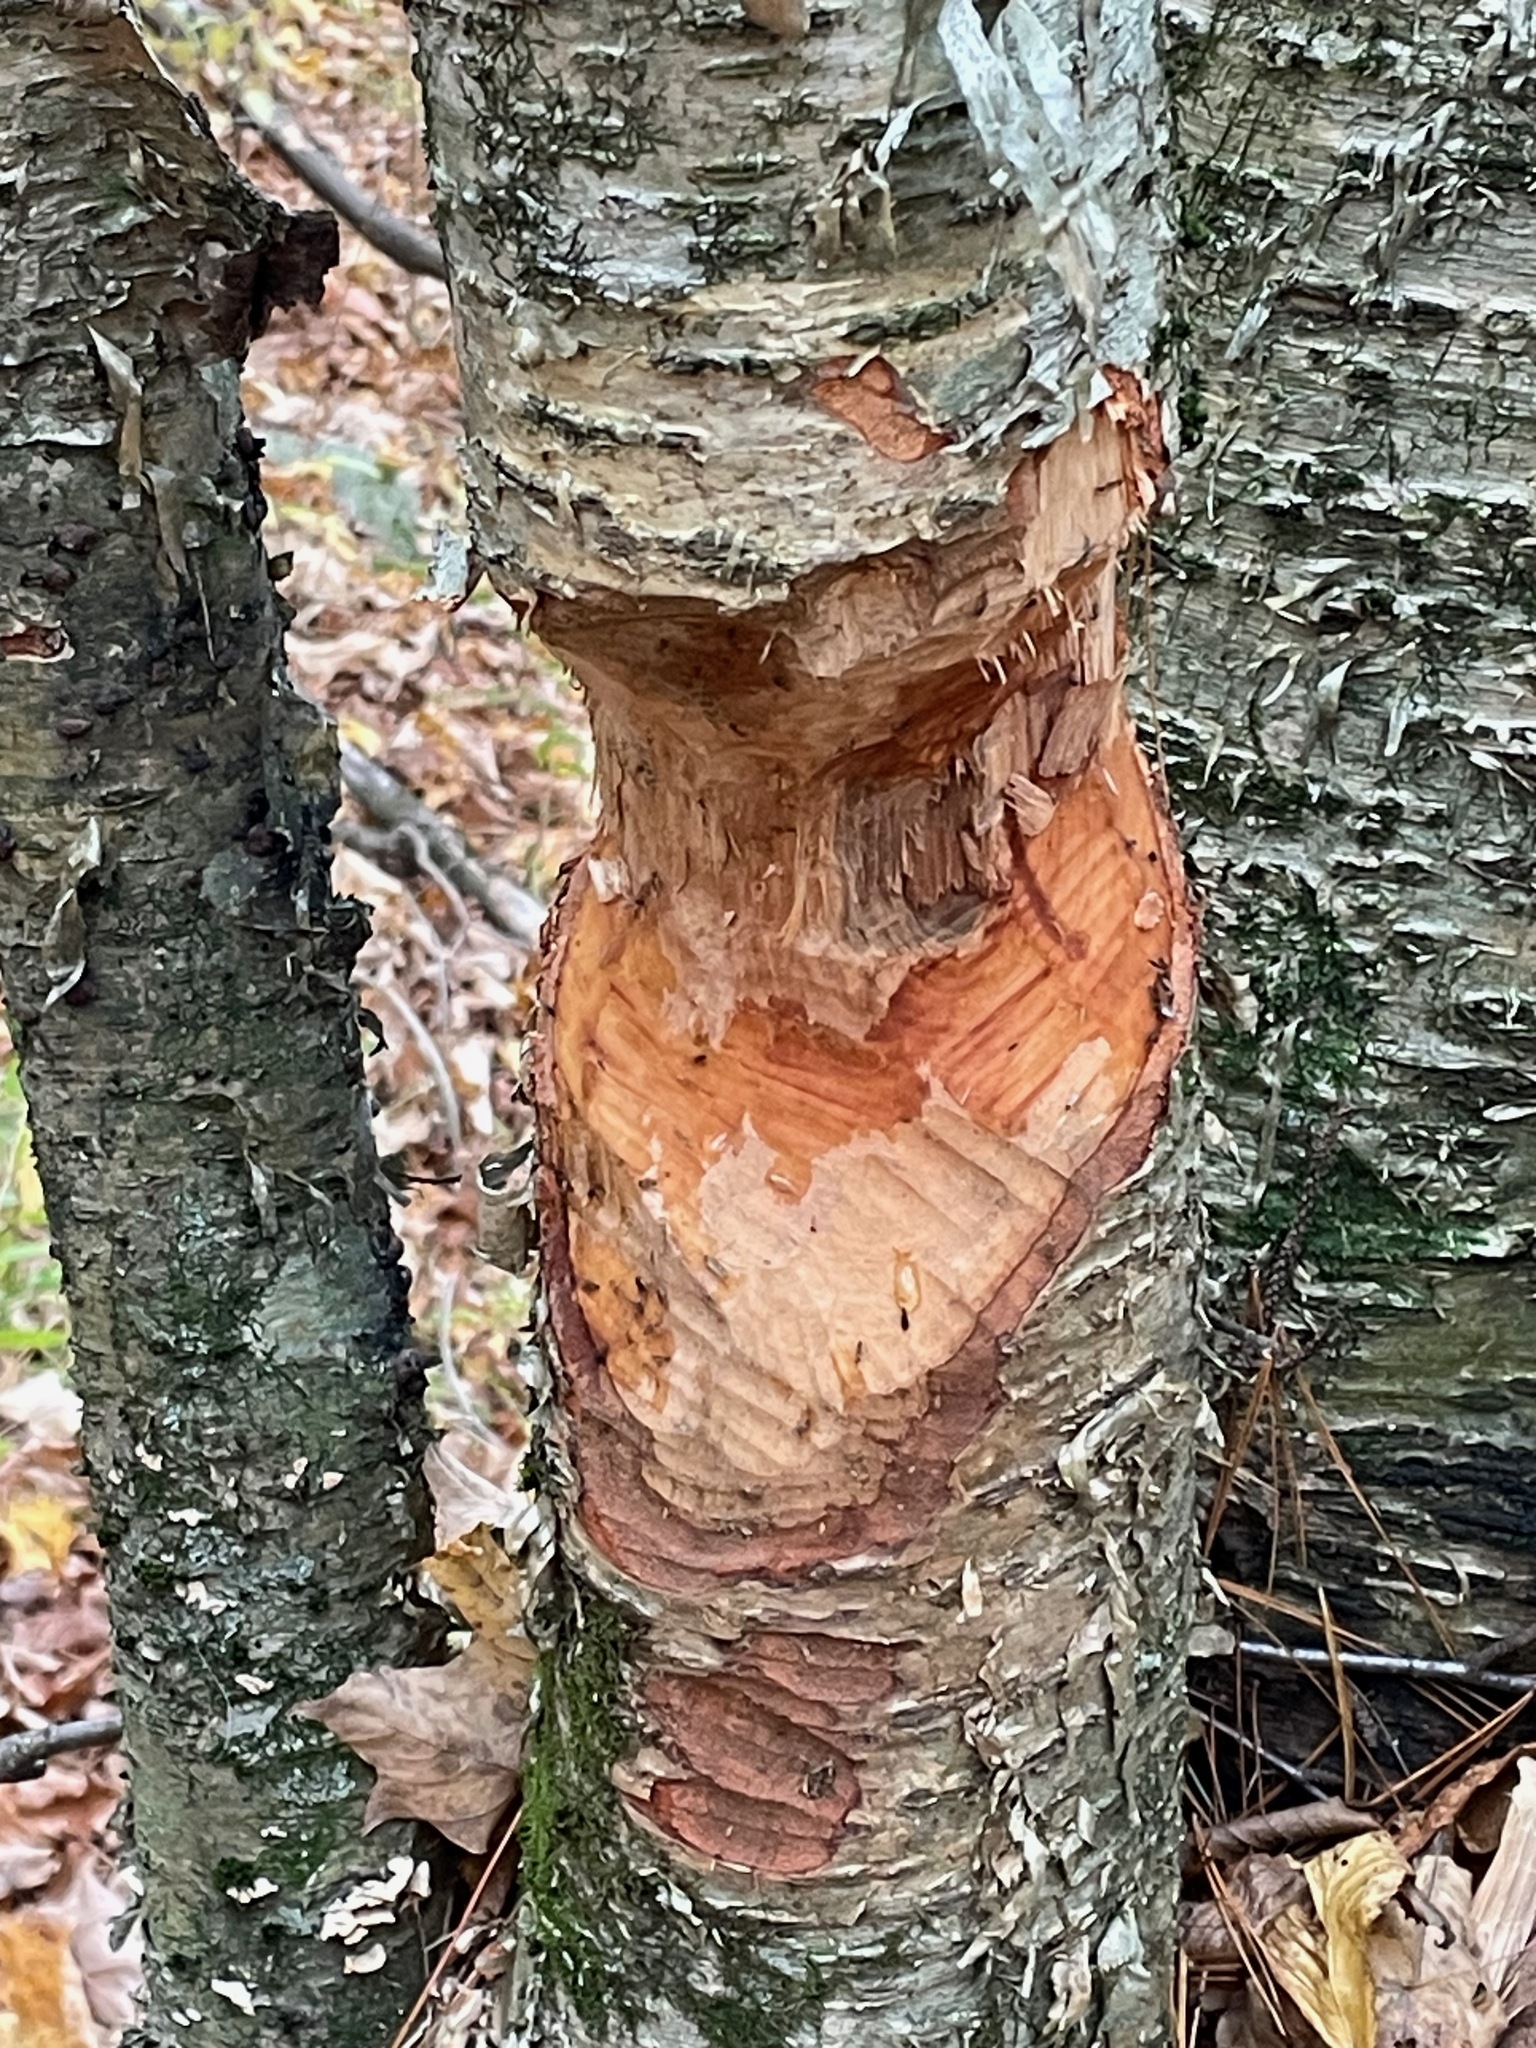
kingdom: Animalia
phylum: Chordata
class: Mammalia
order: Rodentia
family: Castoridae
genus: Castor
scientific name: Castor canadensis
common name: American beaver
